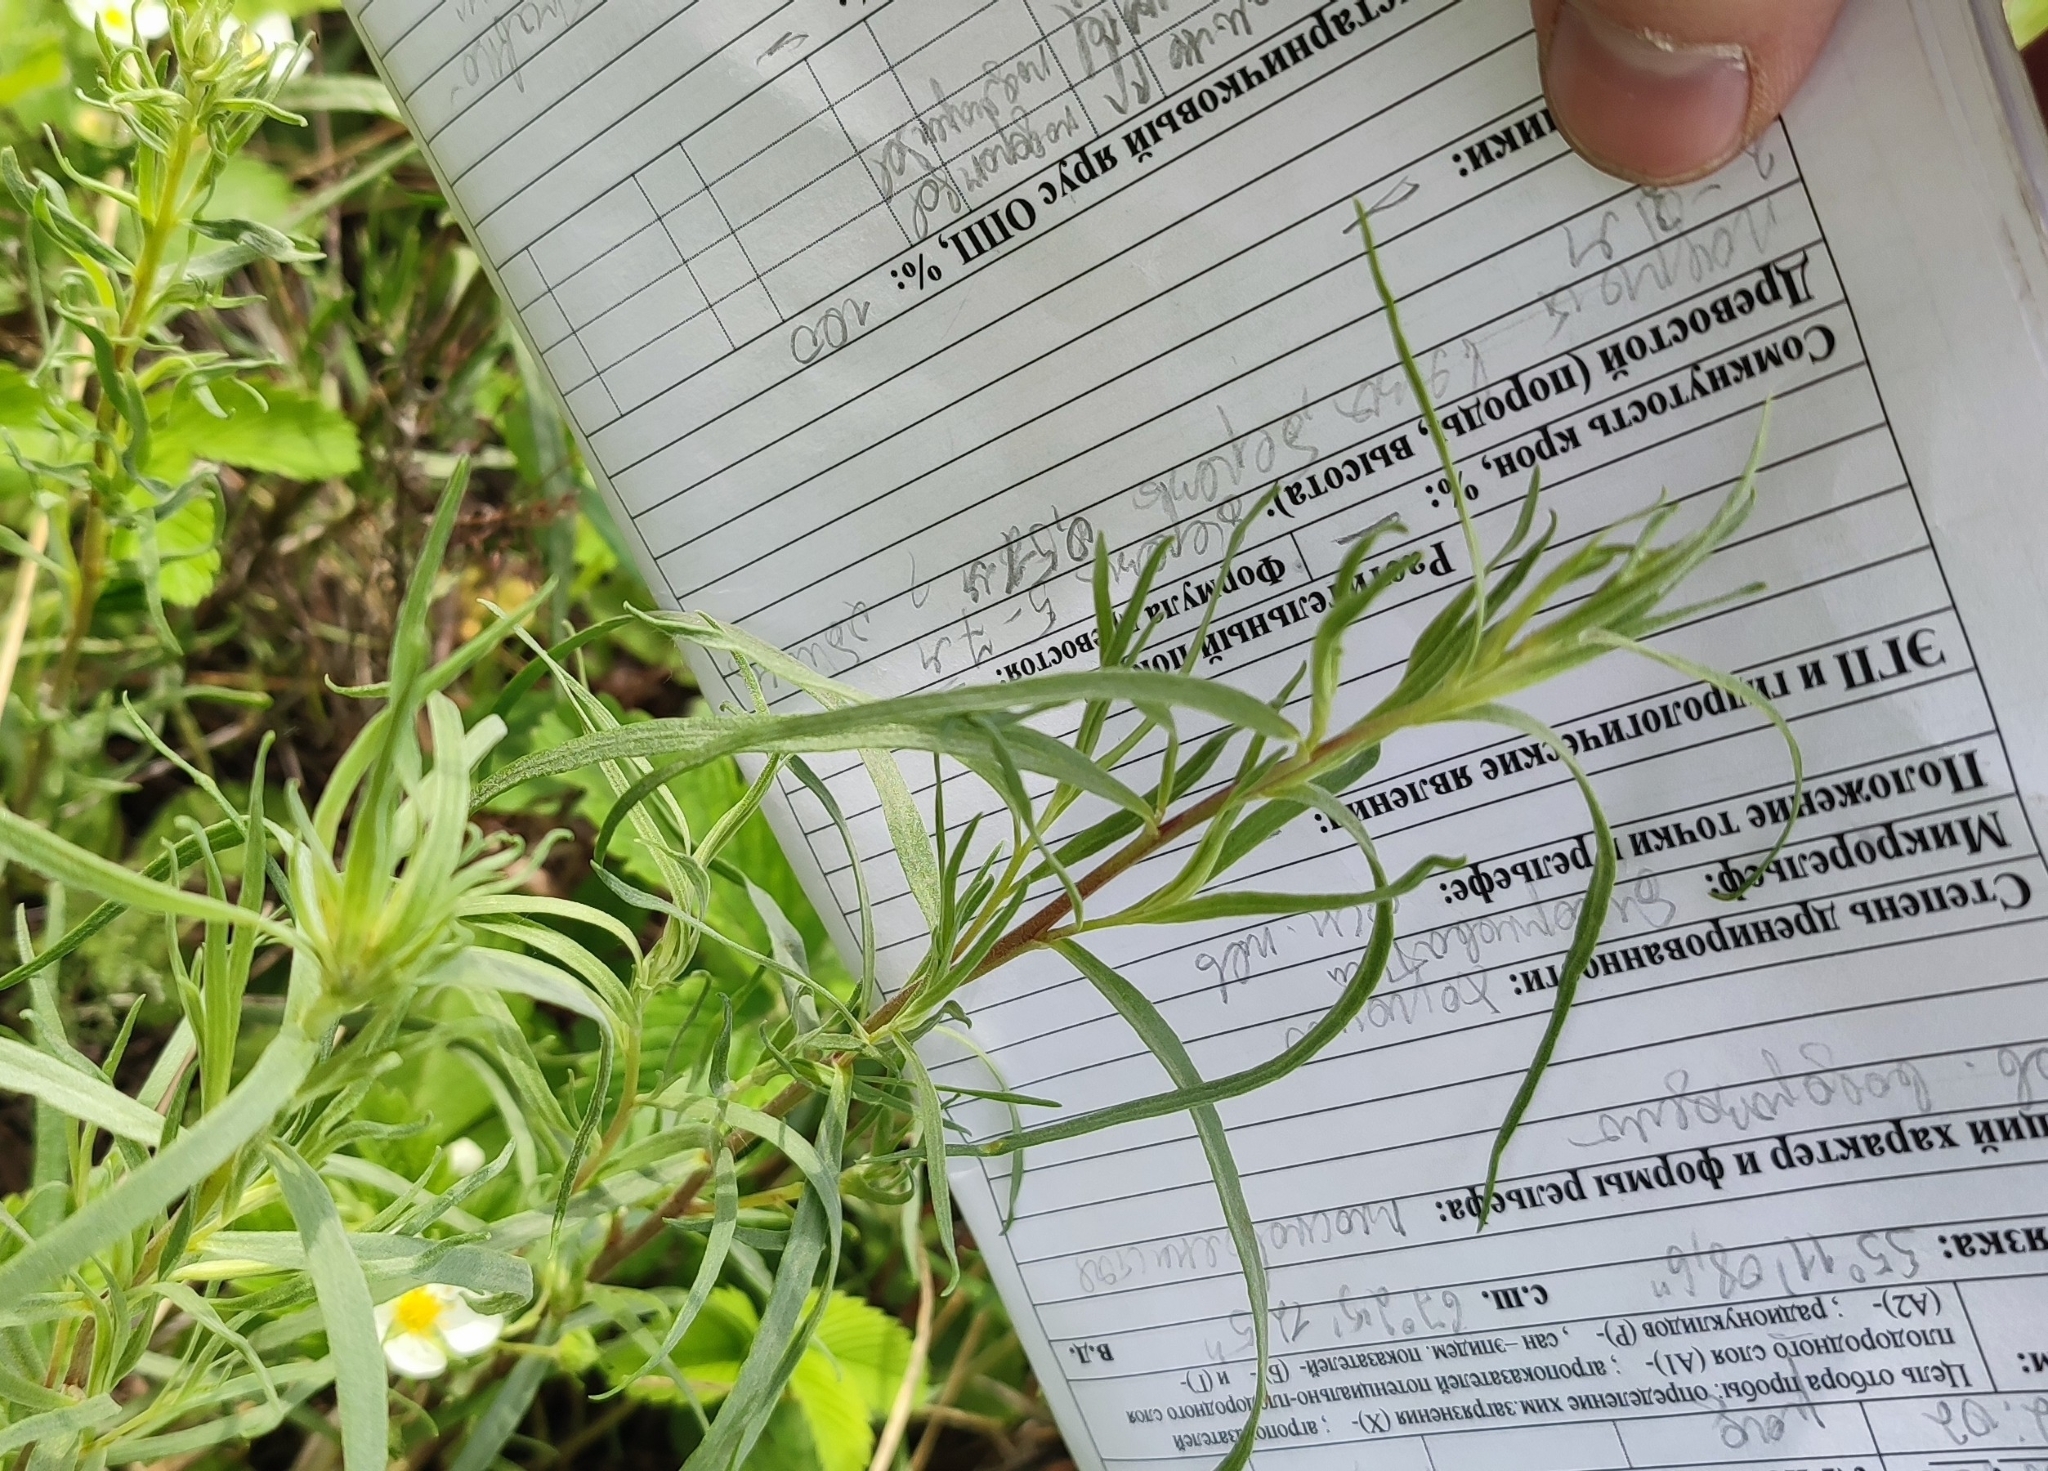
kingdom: Plantae
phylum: Tracheophyta
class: Magnoliopsida
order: Asterales
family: Asteraceae
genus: Artemisia
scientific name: Artemisia dracunculus
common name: Tarragon
